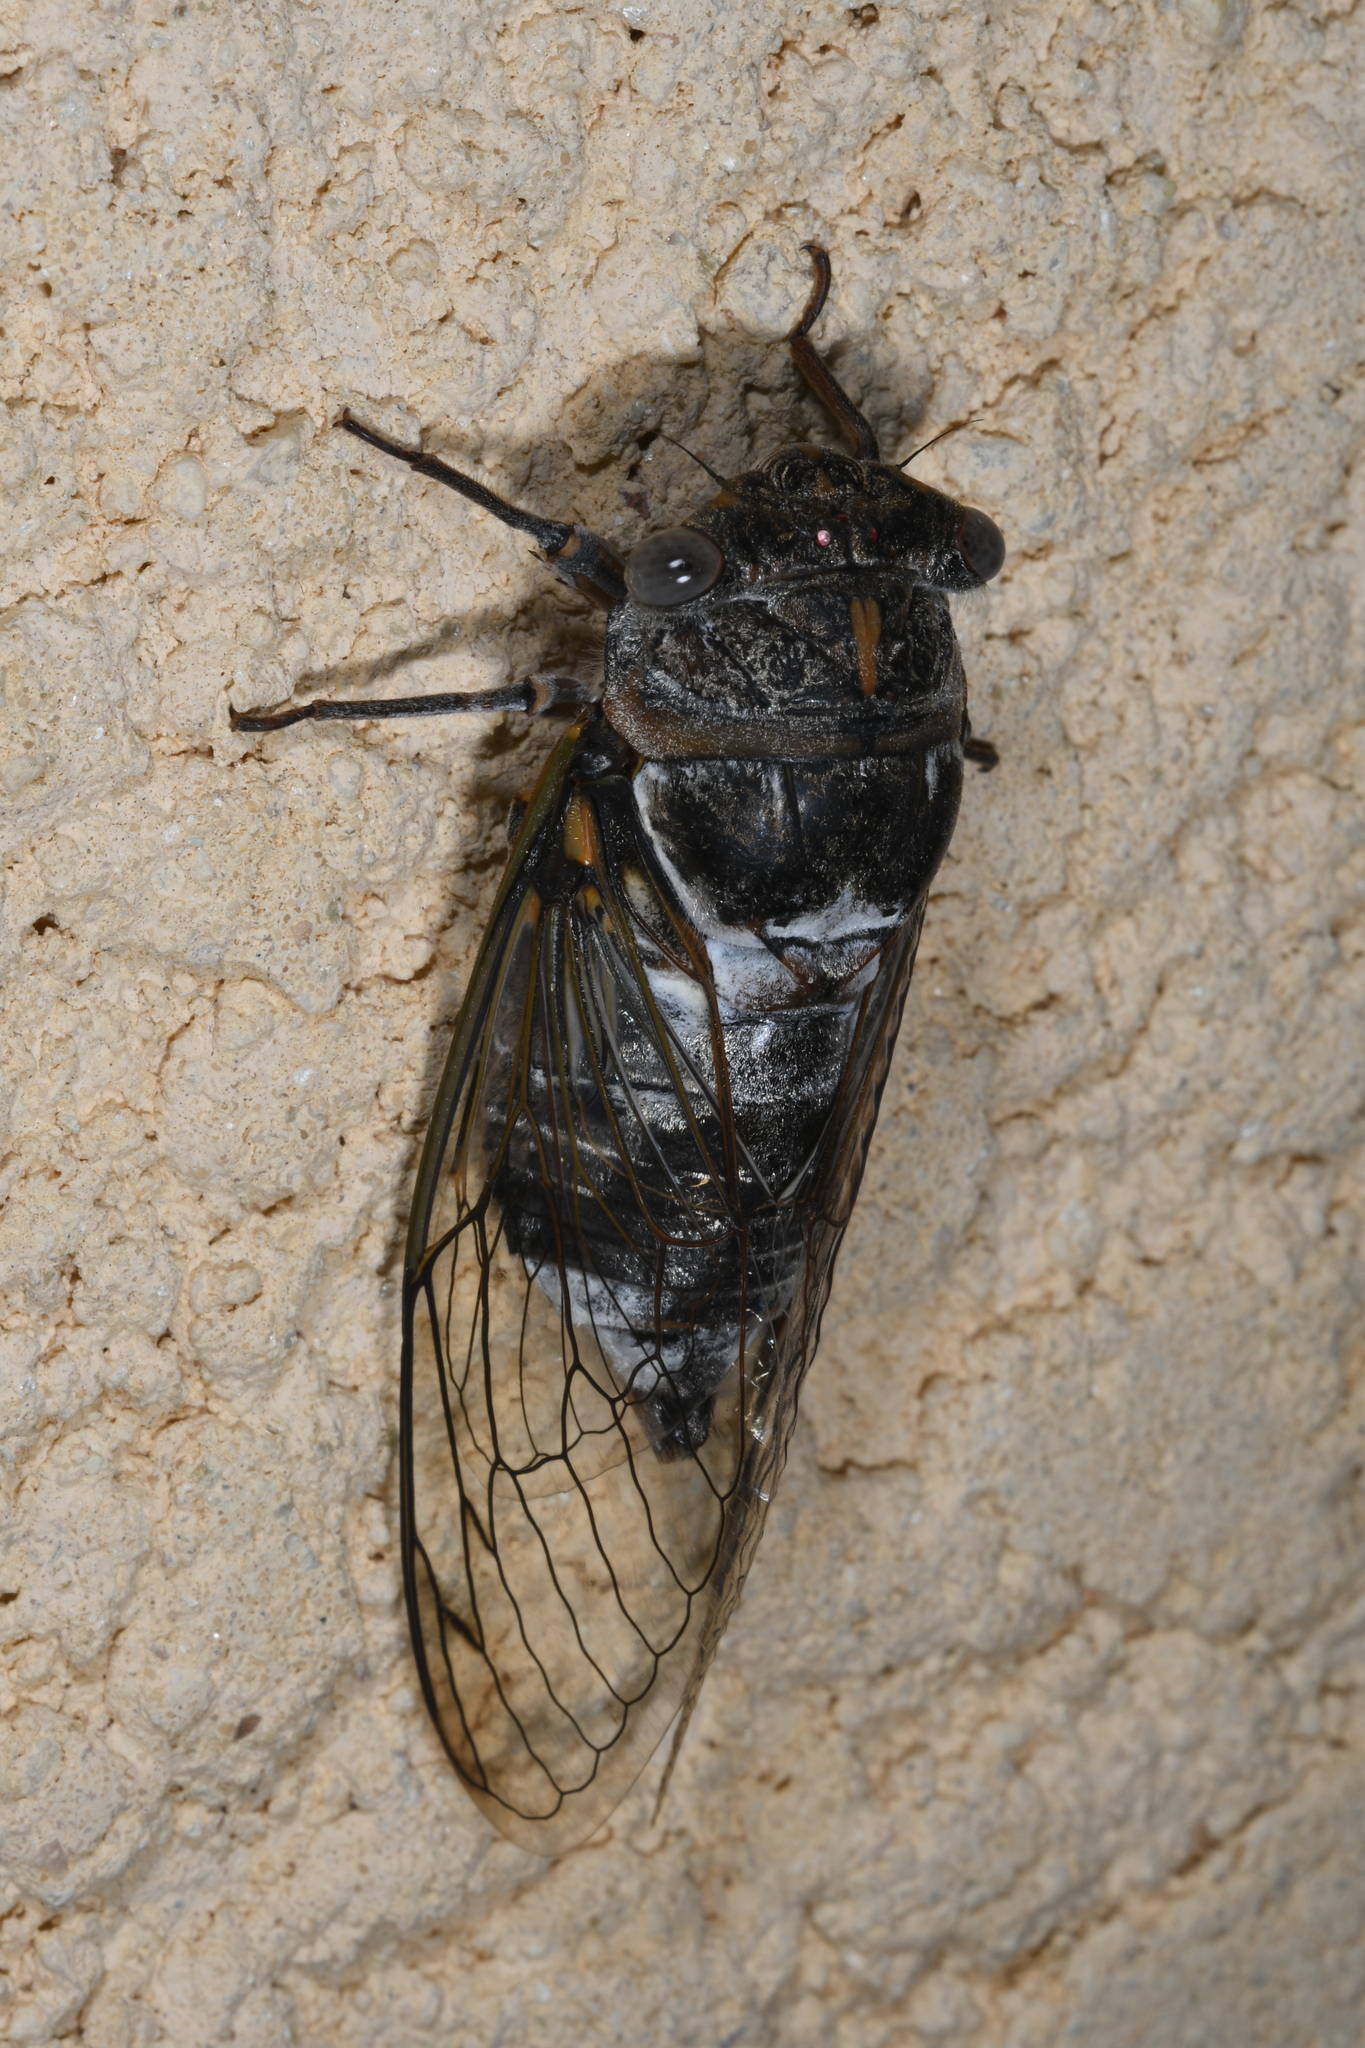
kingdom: Animalia
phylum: Arthropoda
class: Insecta
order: Hemiptera
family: Cicadidae
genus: Lyristes
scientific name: Lyristes plebejus
